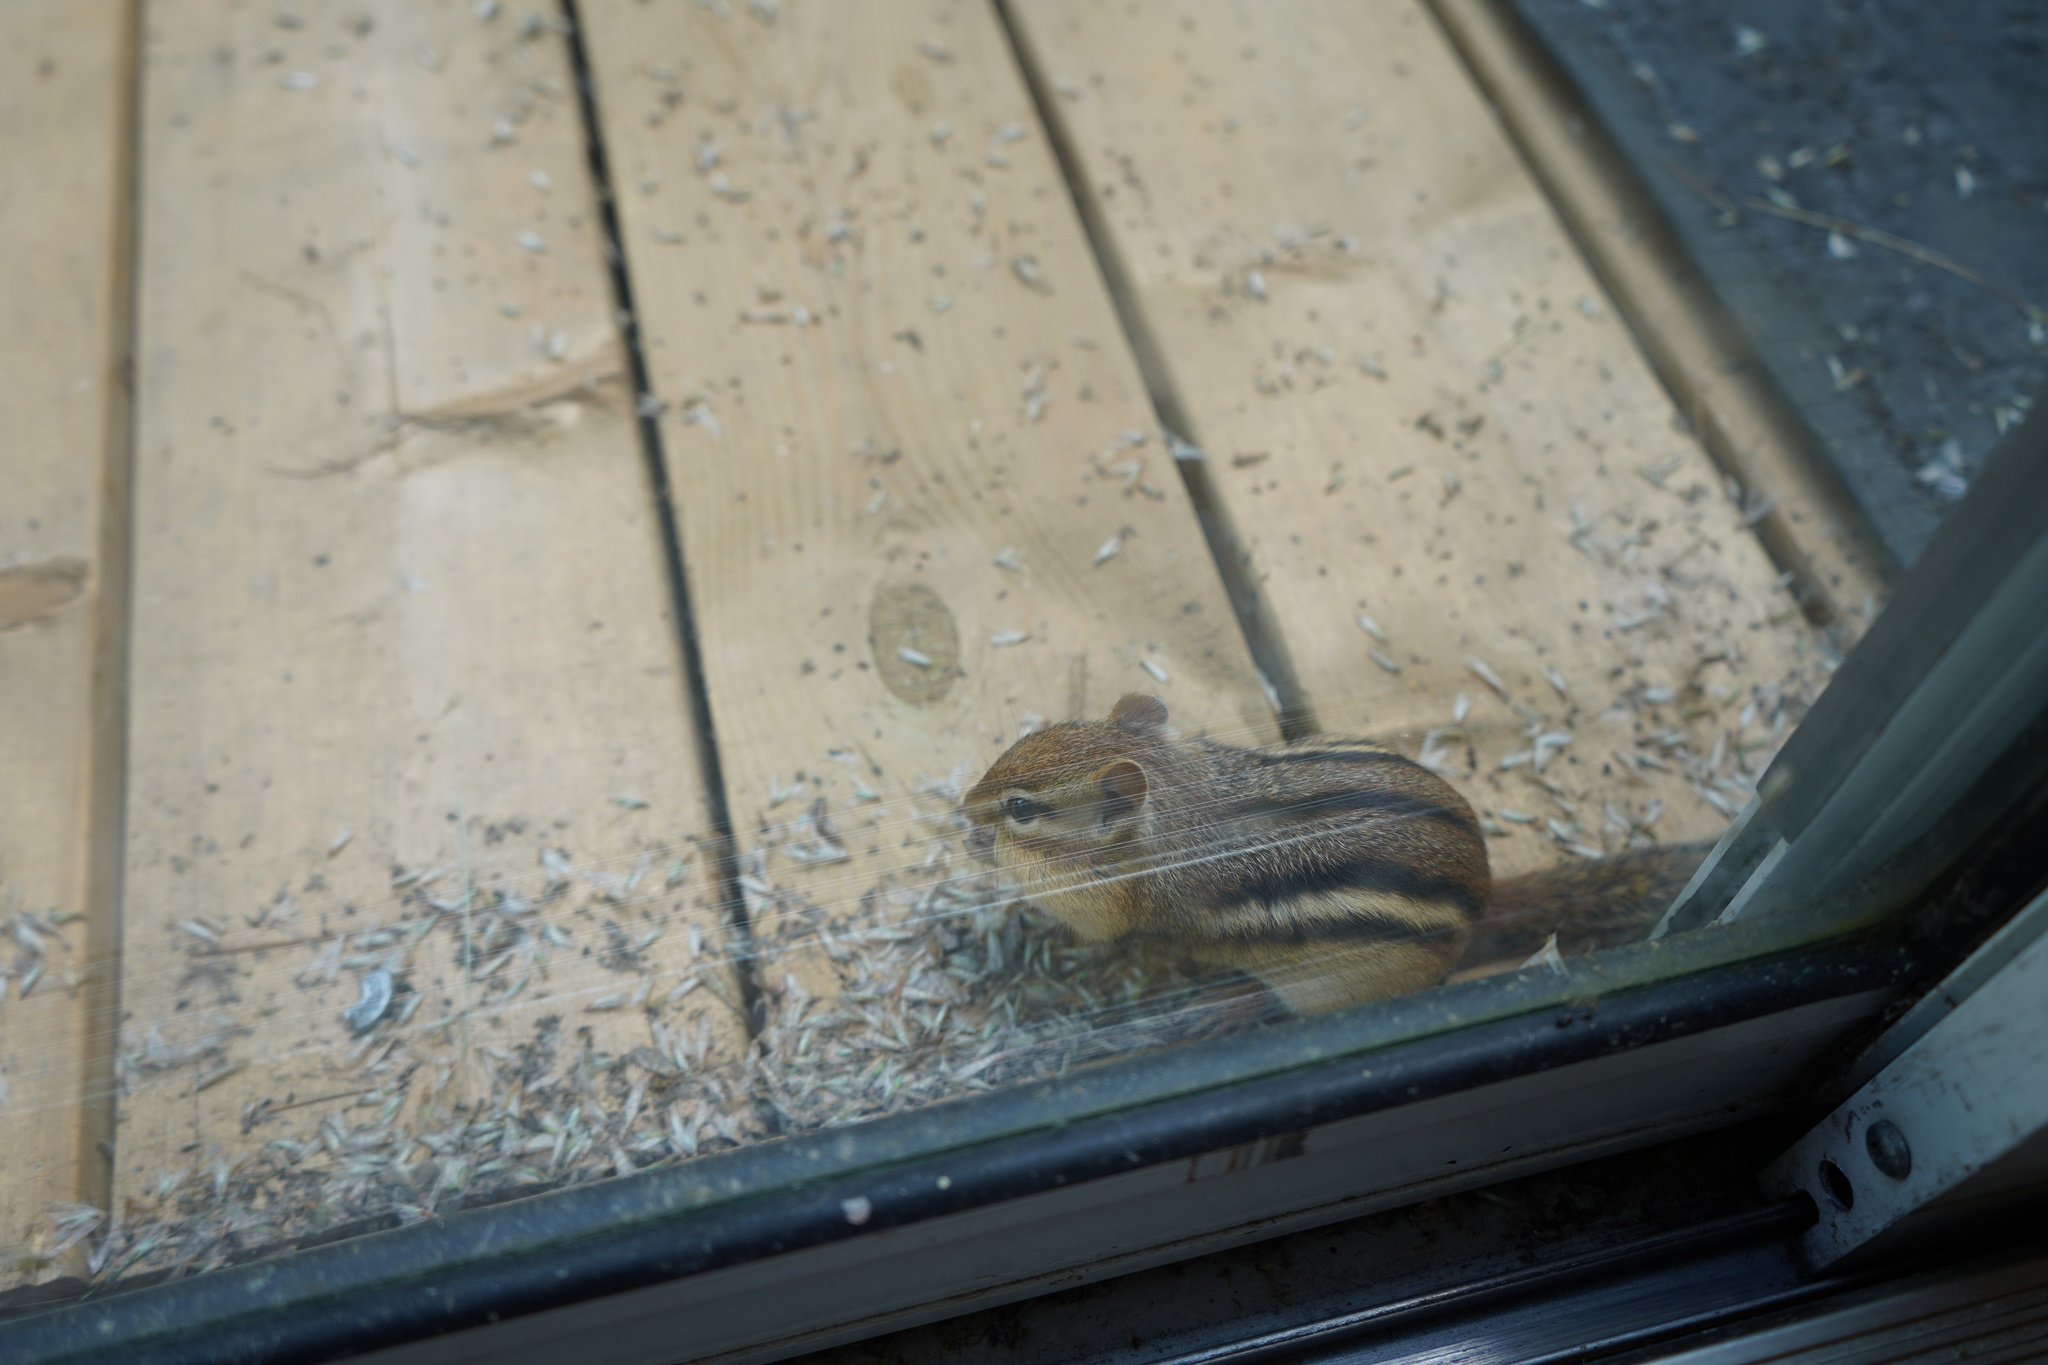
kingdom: Animalia
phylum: Chordata
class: Mammalia
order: Rodentia
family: Sciuridae
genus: Tamias
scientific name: Tamias striatus
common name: Eastern chipmunk
